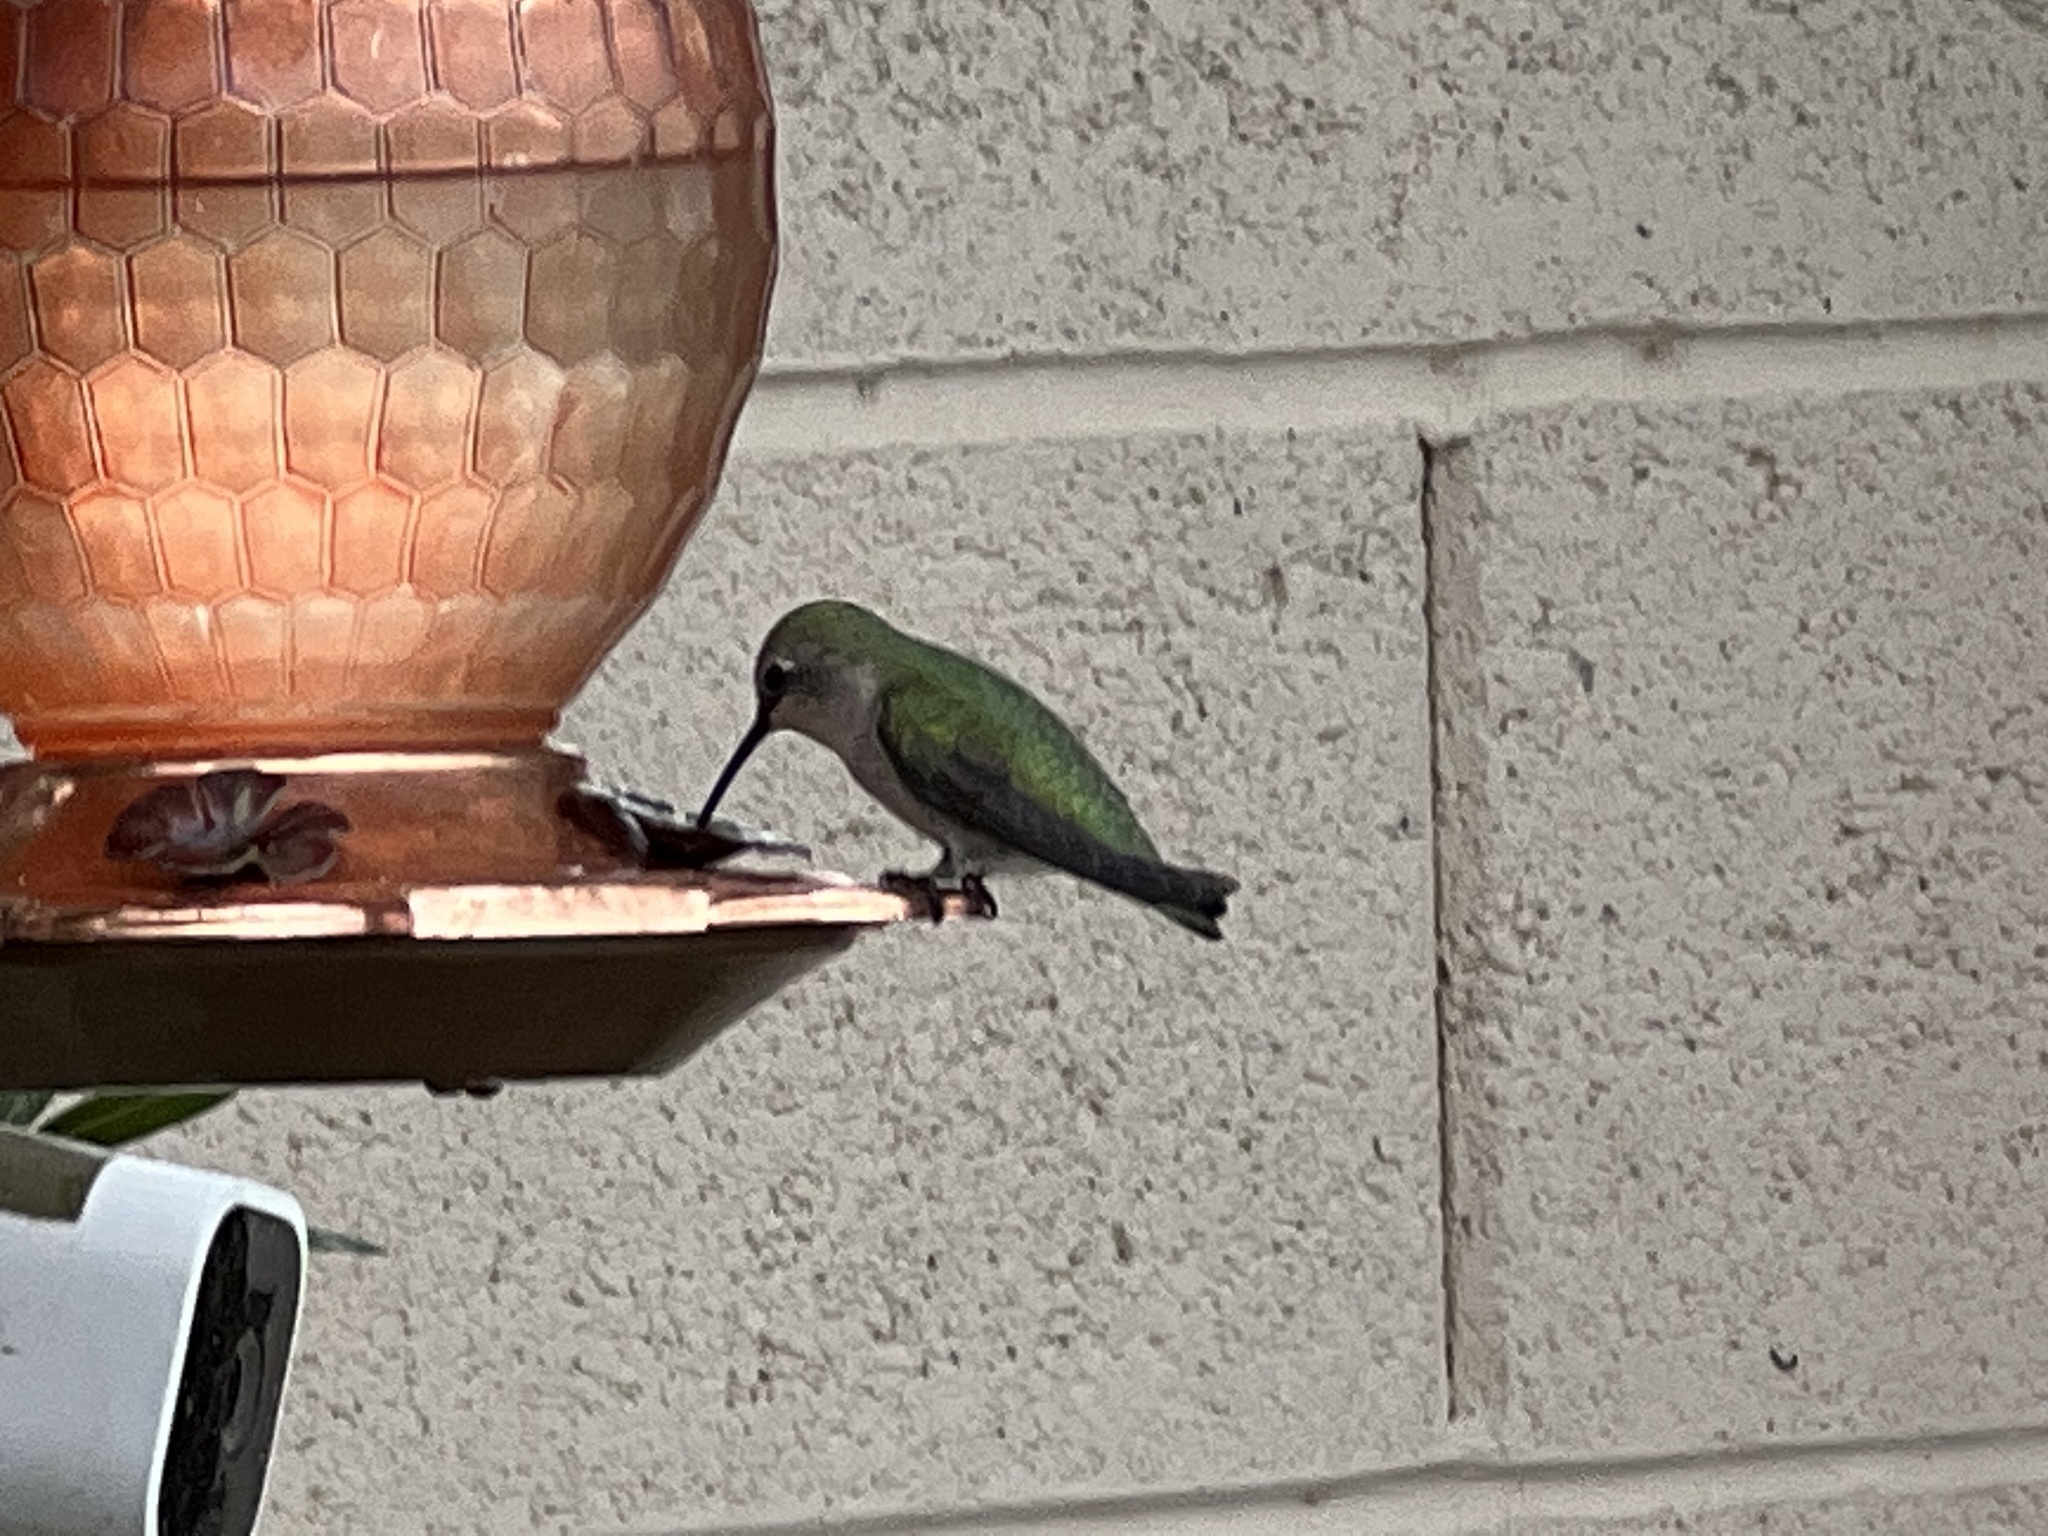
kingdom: Animalia
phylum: Chordata
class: Aves
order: Apodiformes
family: Trochilidae
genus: Calypte
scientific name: Calypte anna
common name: Anna's hummingbird
